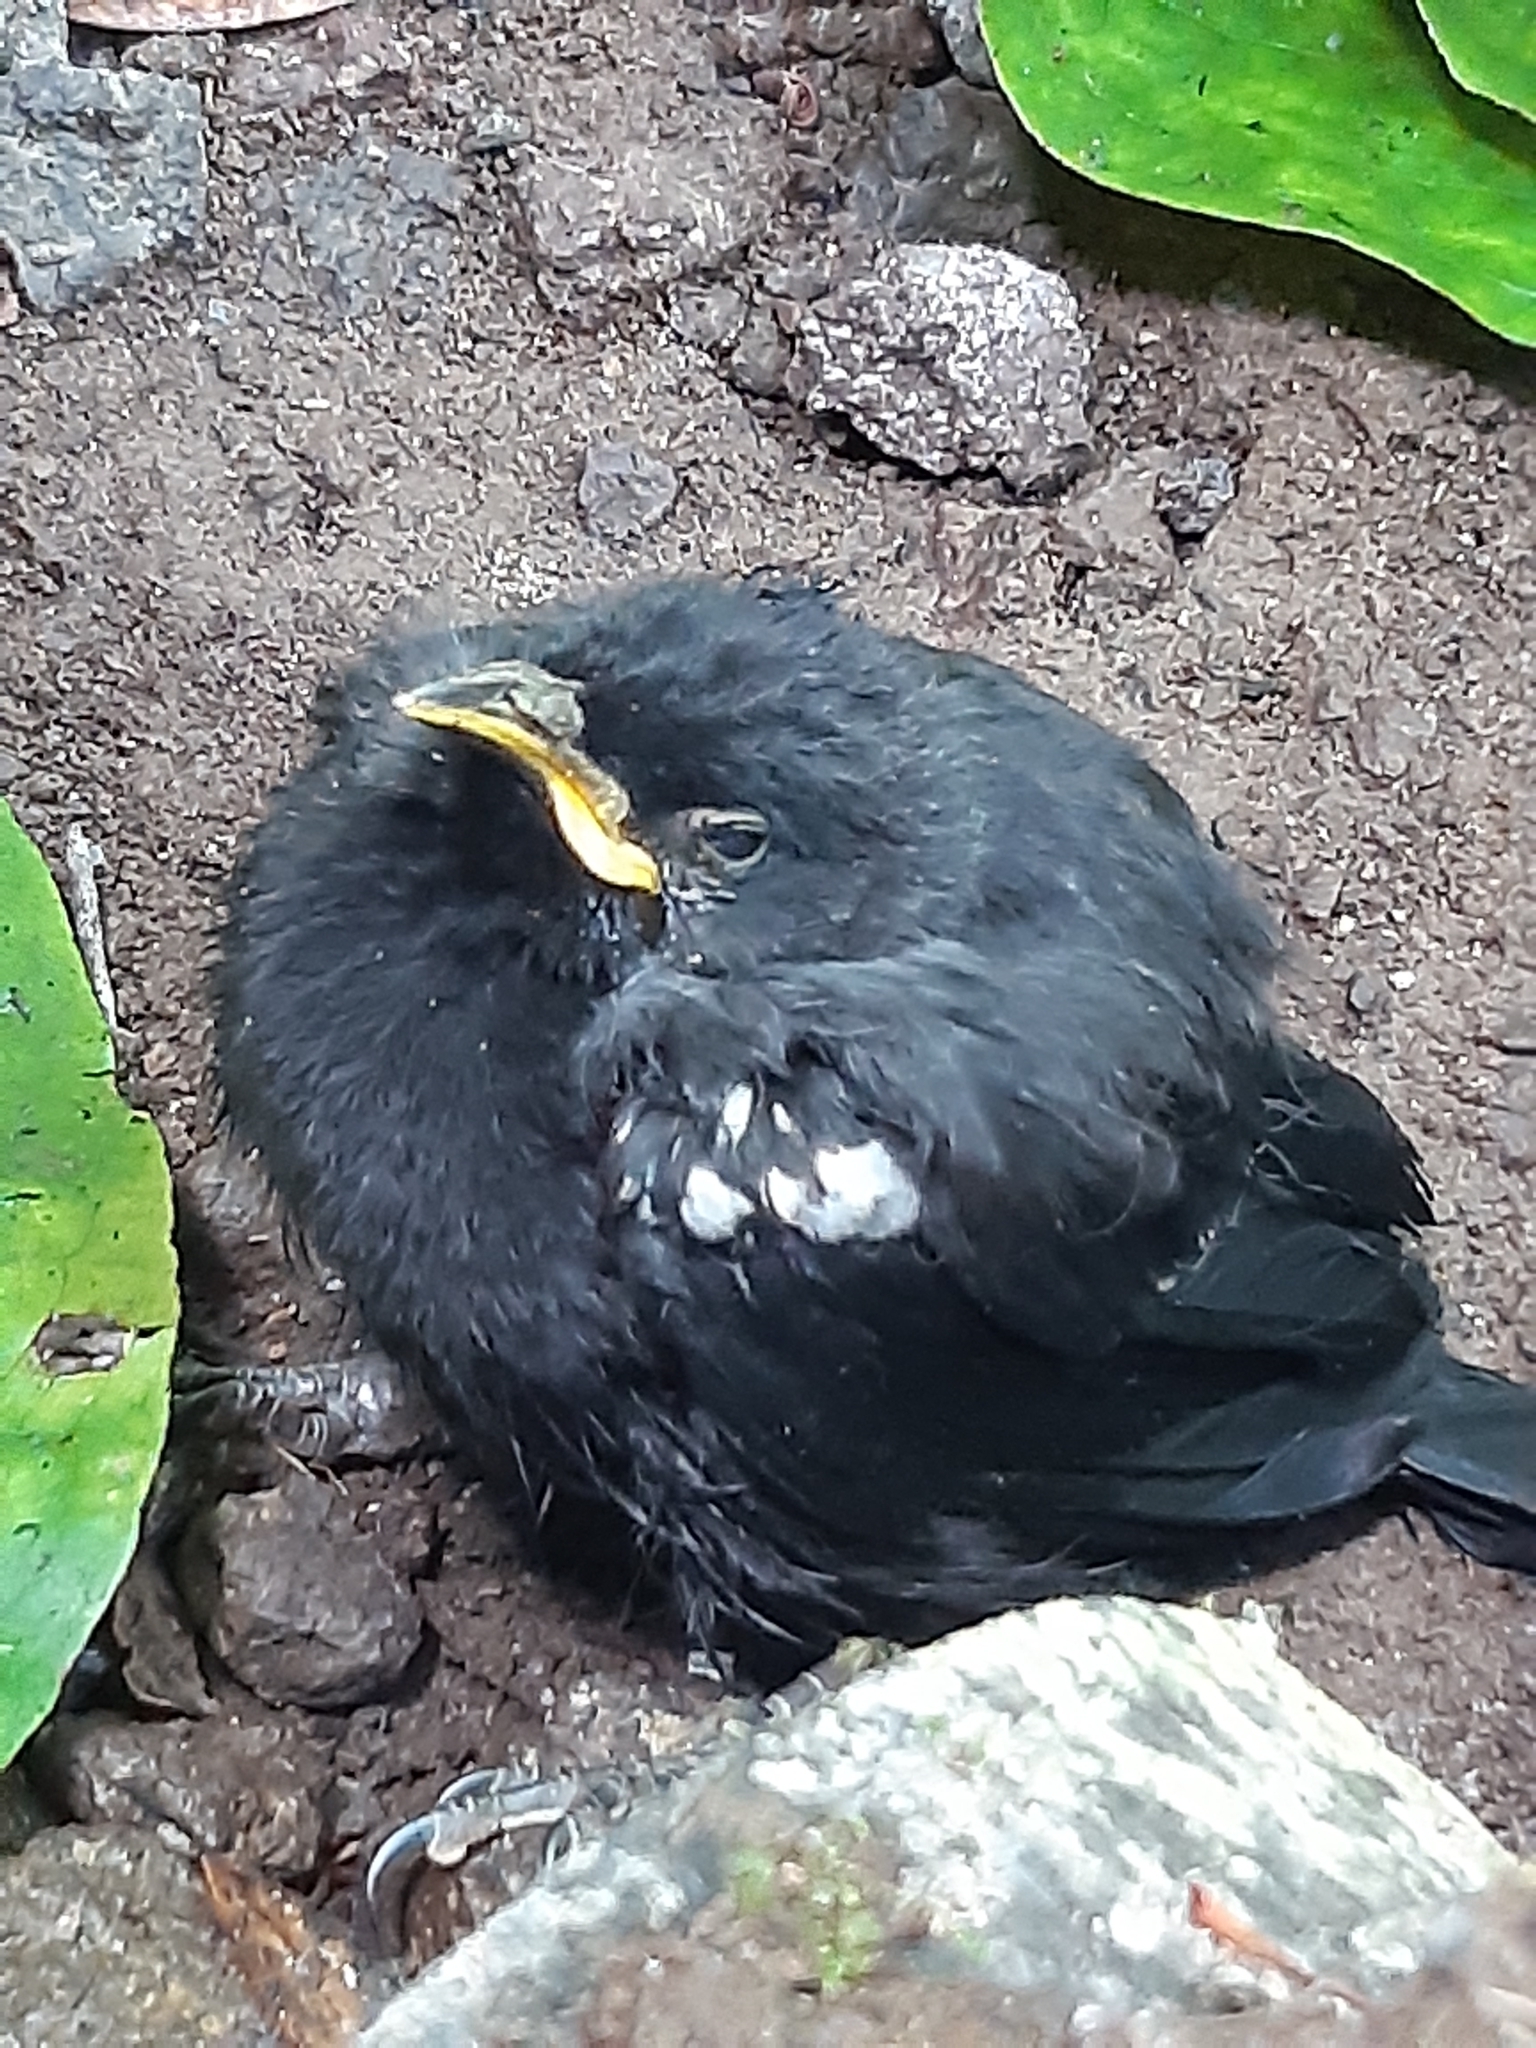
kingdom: Animalia
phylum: Chordata
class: Aves
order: Passeriformes
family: Meliphagidae
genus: Prosthemadera
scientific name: Prosthemadera novaeseelandiae
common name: Tui
